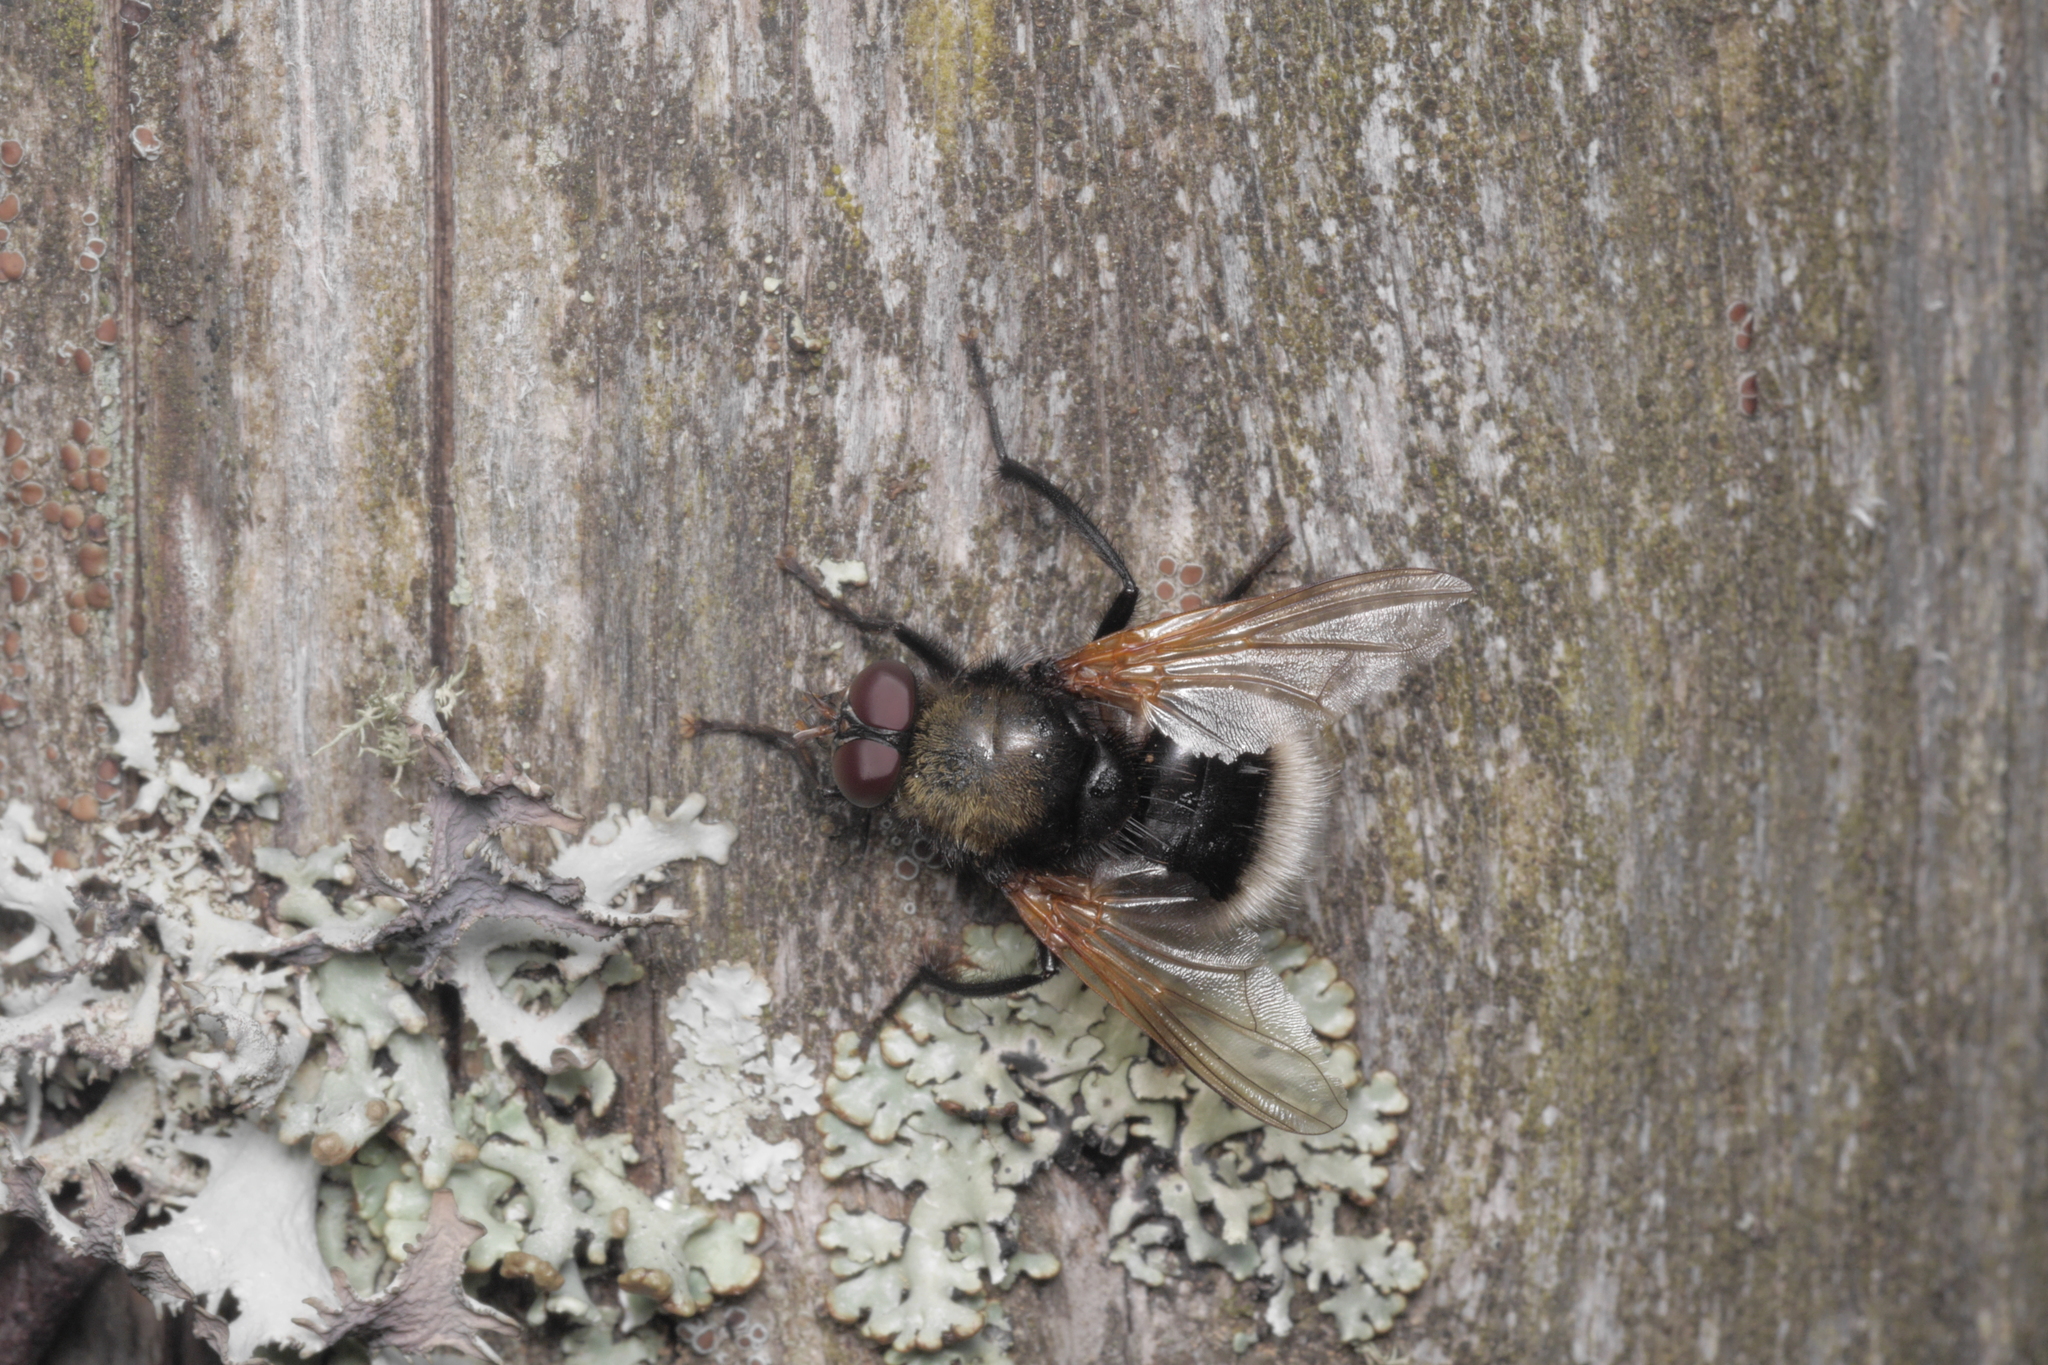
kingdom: Animalia
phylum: Arthropoda
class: Insecta
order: Diptera
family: Muscidae
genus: Mesembrina
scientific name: Mesembrina mystacea
